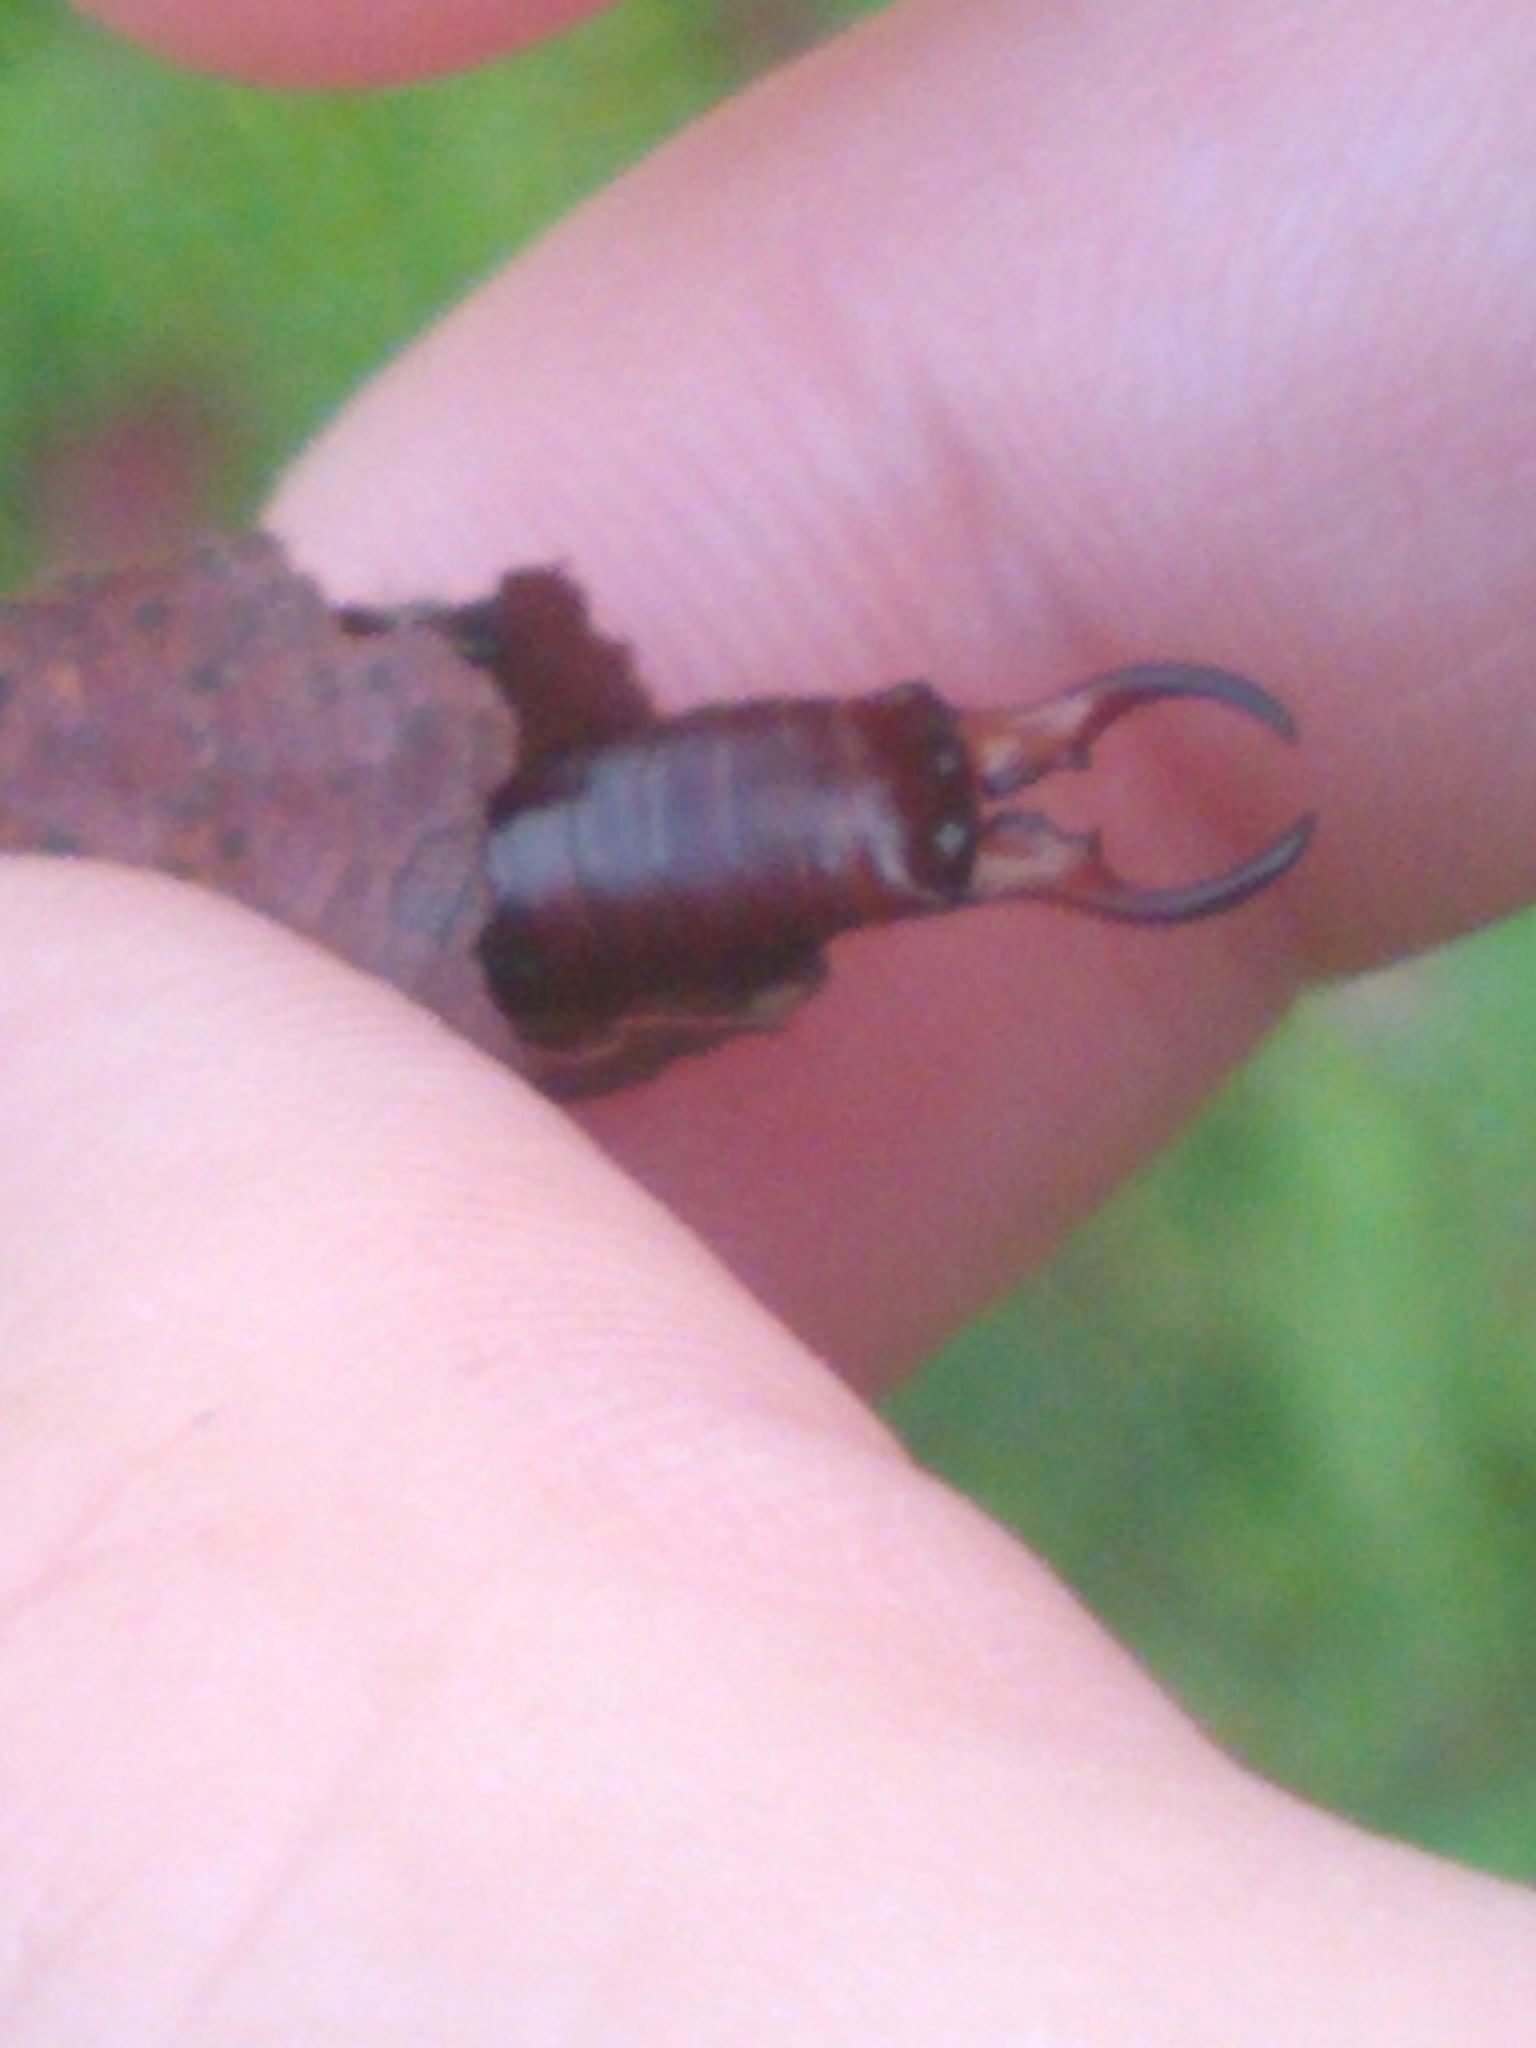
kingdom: Animalia
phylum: Arthropoda
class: Insecta
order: Dermaptera
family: Forficulidae
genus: Forficula
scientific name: Forficula
